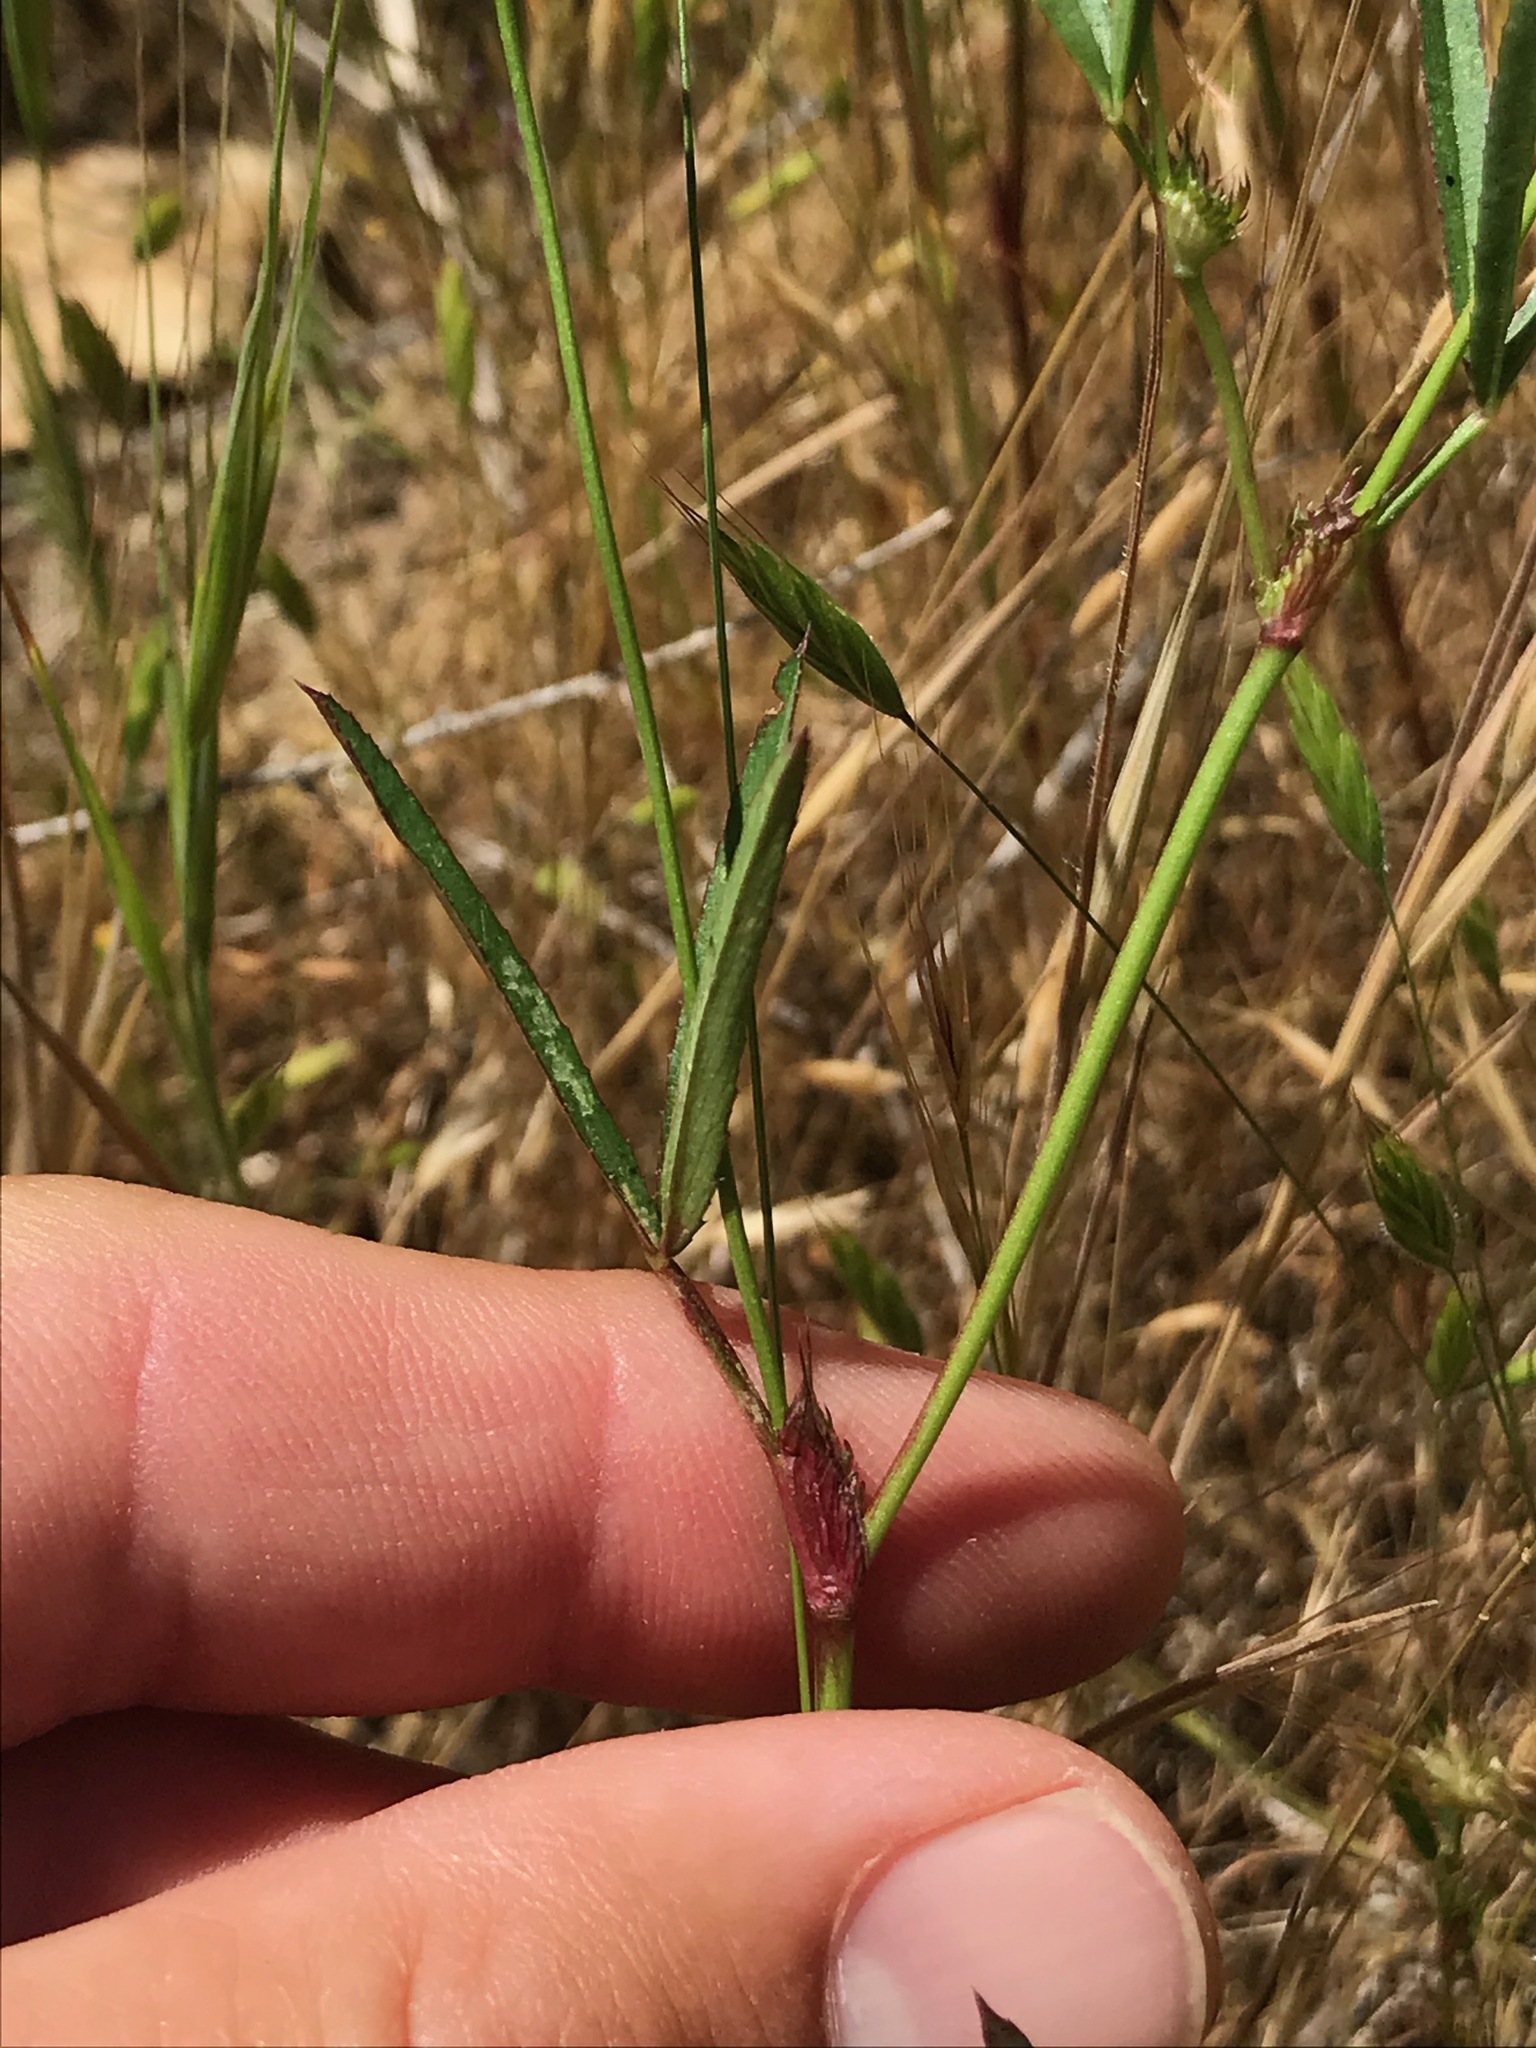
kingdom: Plantae
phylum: Tracheophyta
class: Magnoliopsida
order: Fabales
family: Fabaceae
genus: Trifolium
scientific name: Trifolium willdenovii
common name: Tomcat clover
